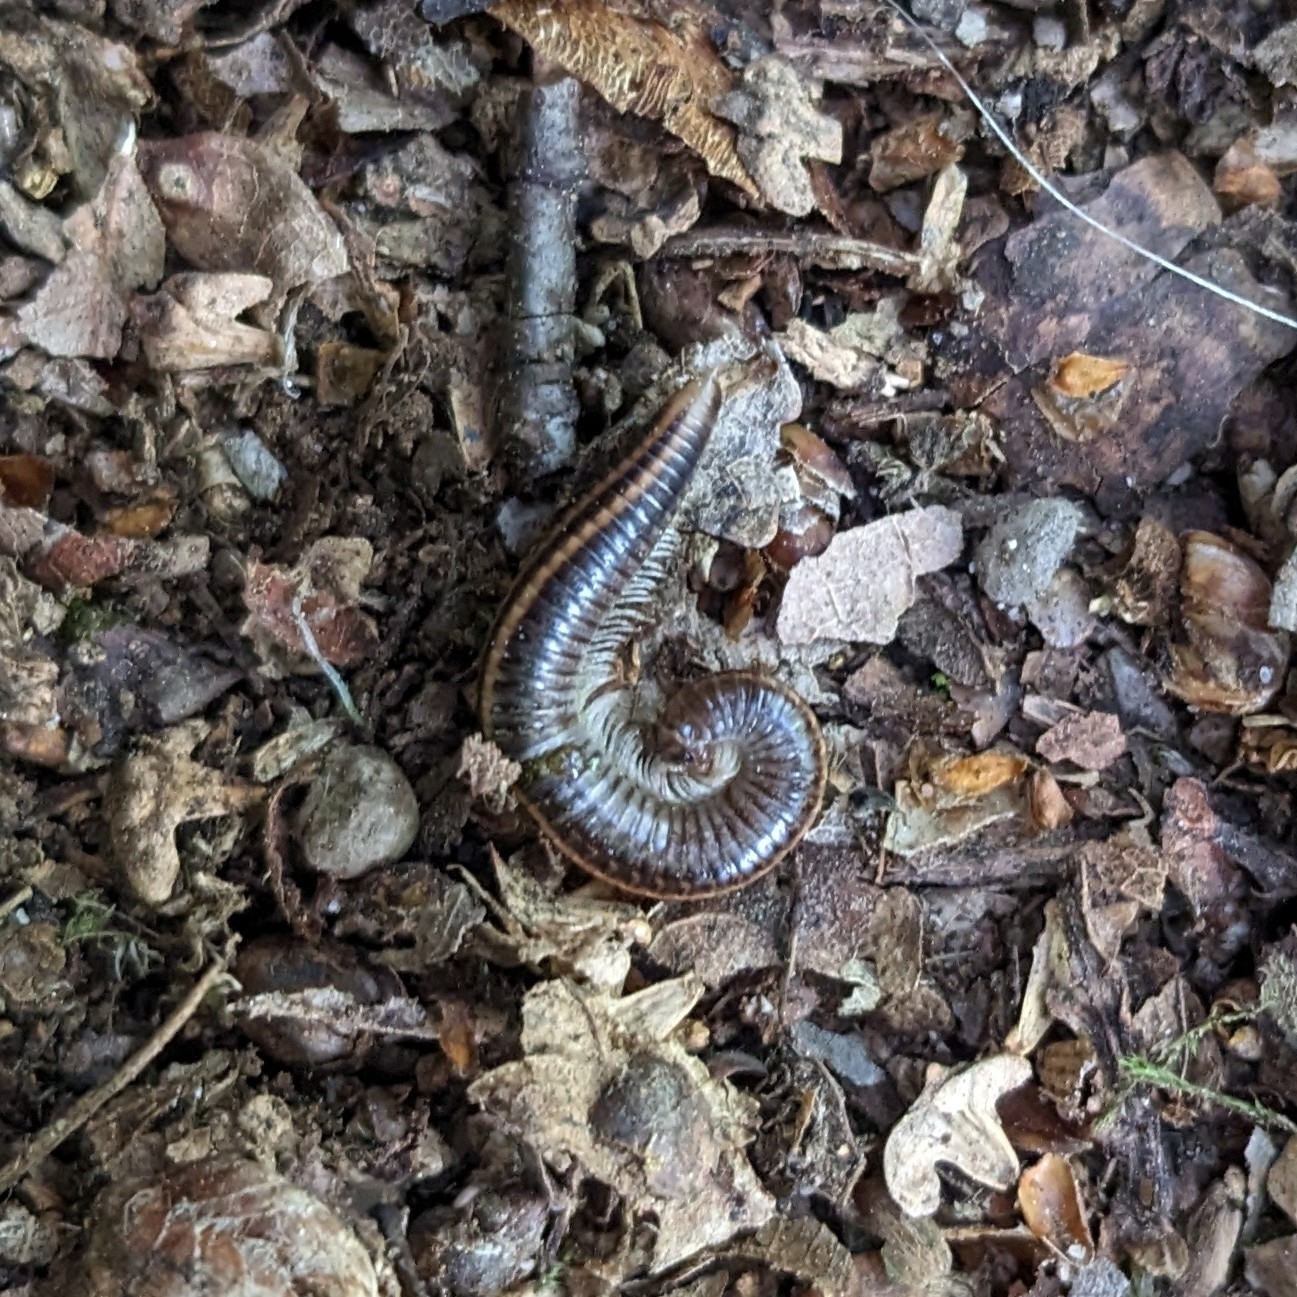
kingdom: Animalia
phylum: Arthropoda
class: Diplopoda
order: Julida
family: Julidae
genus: Ommatoiulus
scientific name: Ommatoiulus sabulosus
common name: Striped millipede
